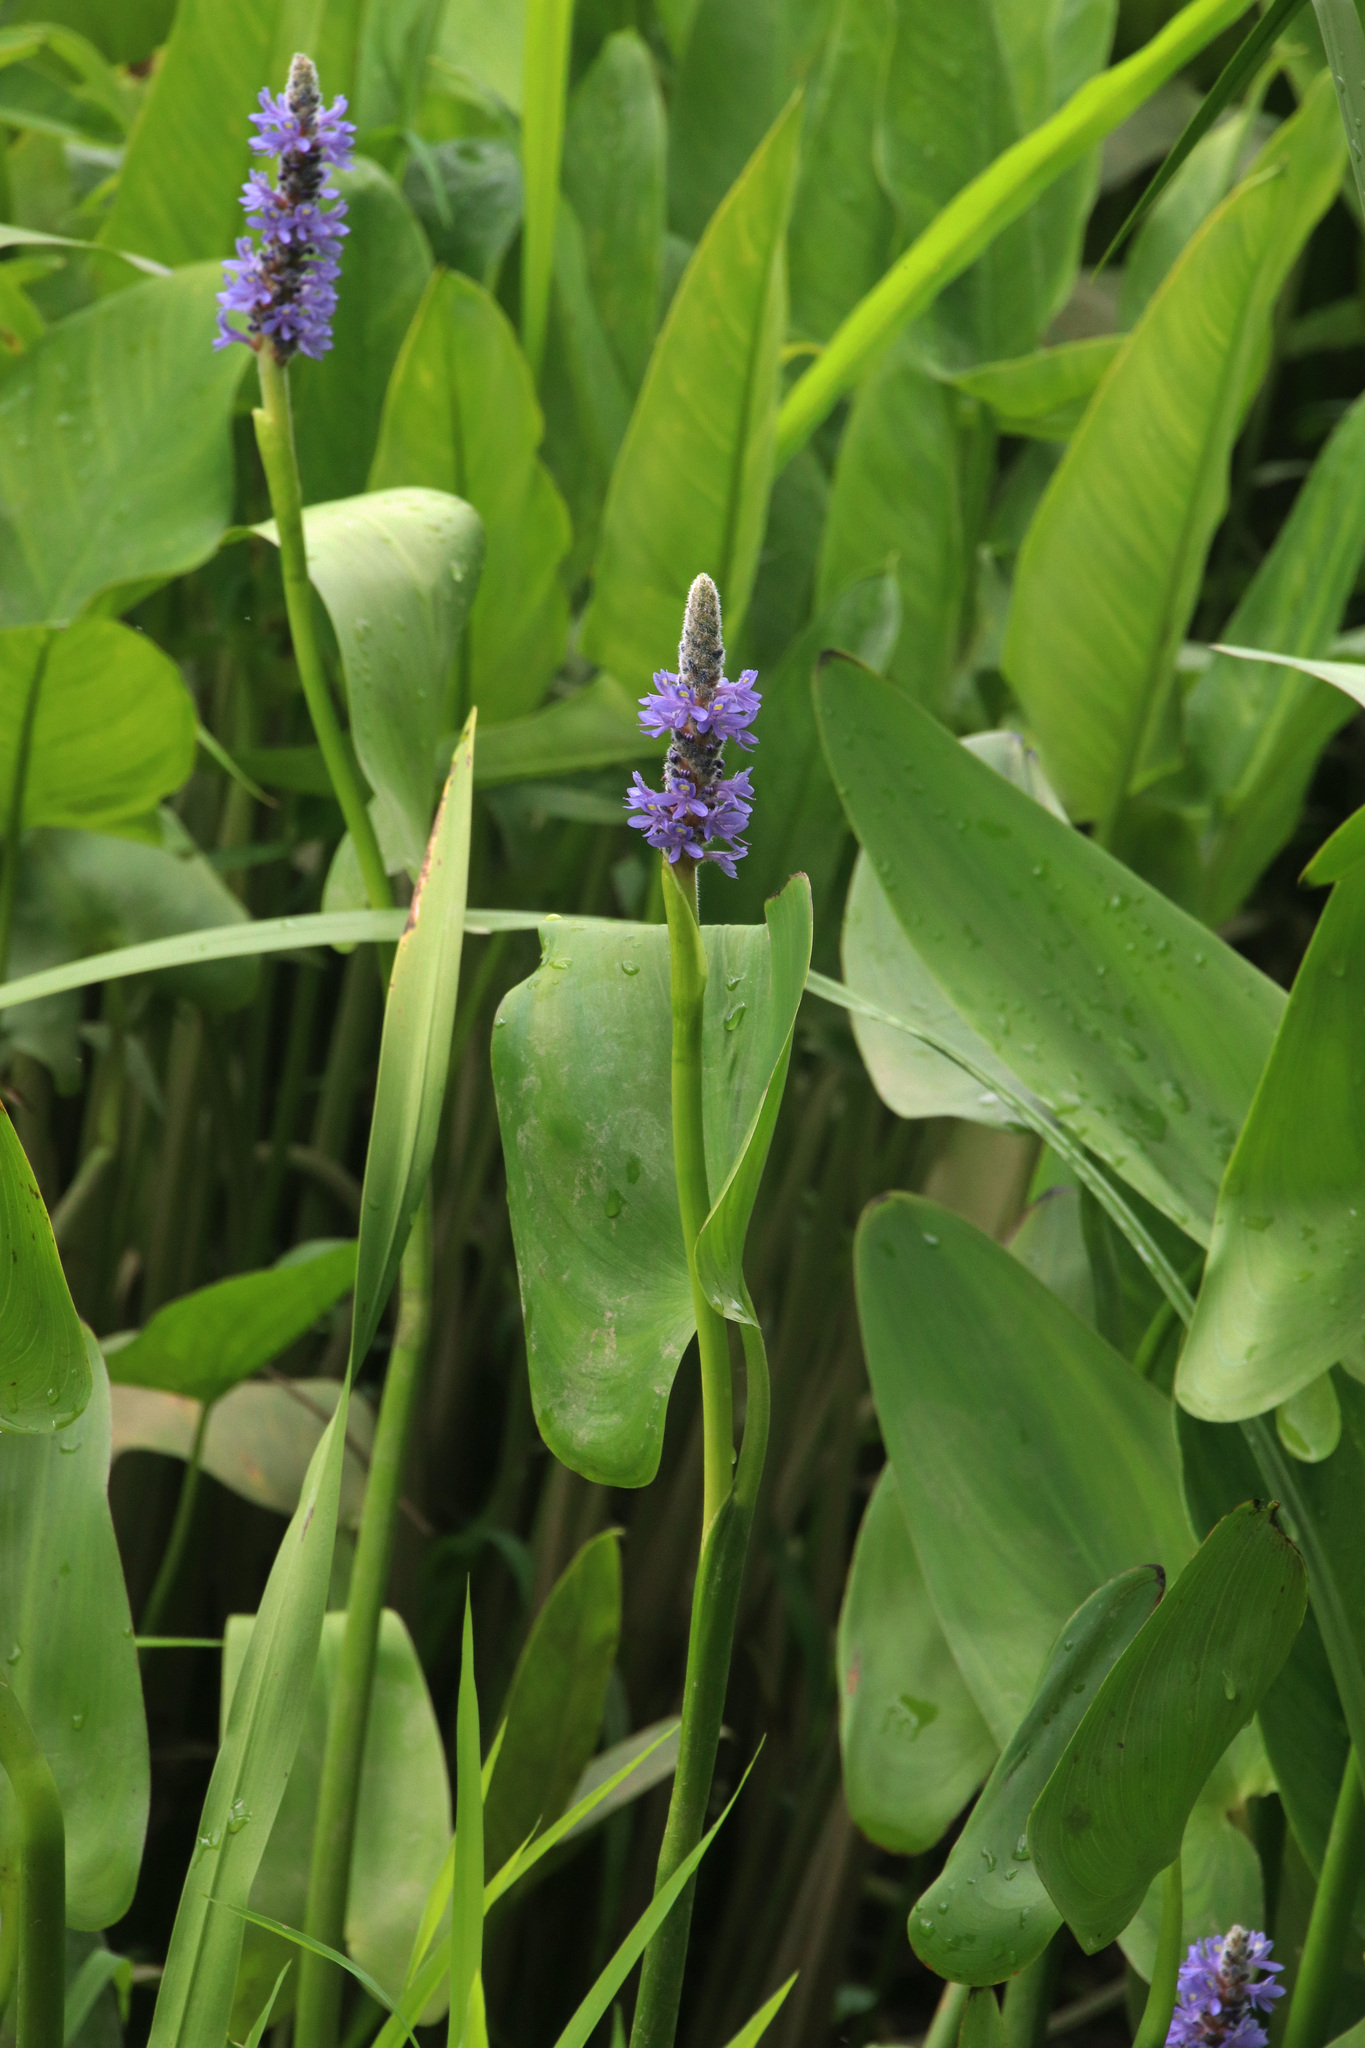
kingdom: Plantae
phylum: Tracheophyta
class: Liliopsida
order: Commelinales
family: Pontederiaceae
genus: Pontederia
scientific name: Pontederia cordata
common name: Pickerelweed
